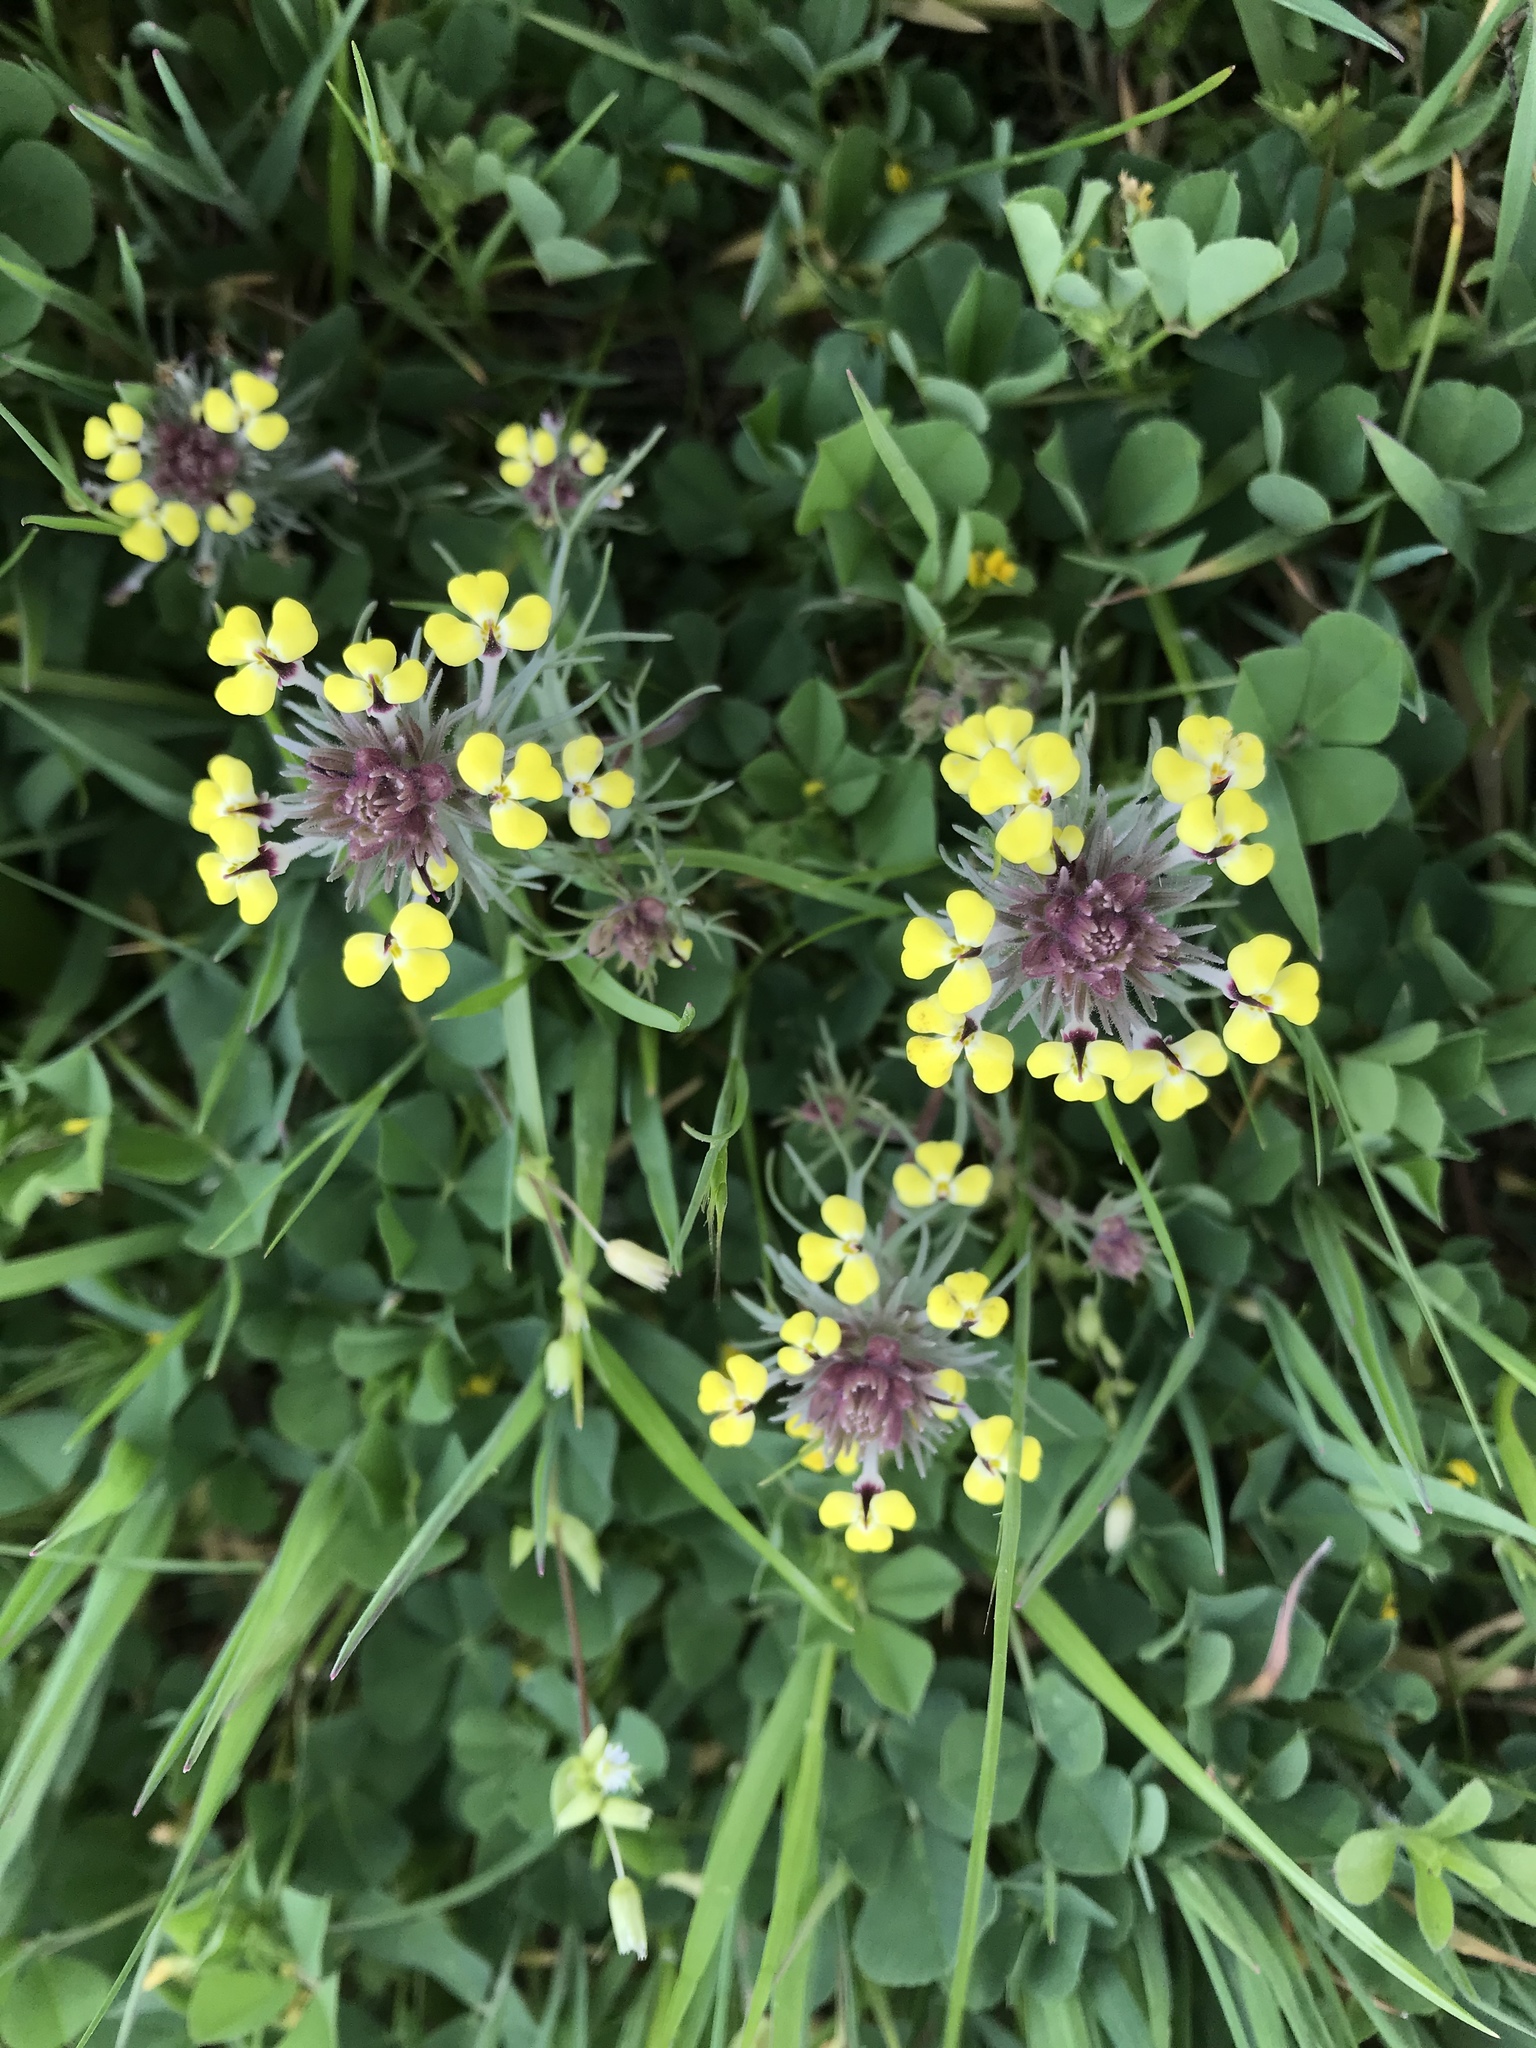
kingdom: Plantae
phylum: Tracheophyta
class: Magnoliopsida
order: Lamiales
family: Orobanchaceae
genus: Triphysaria
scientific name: Triphysaria eriantha
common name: Johnny-tuck
